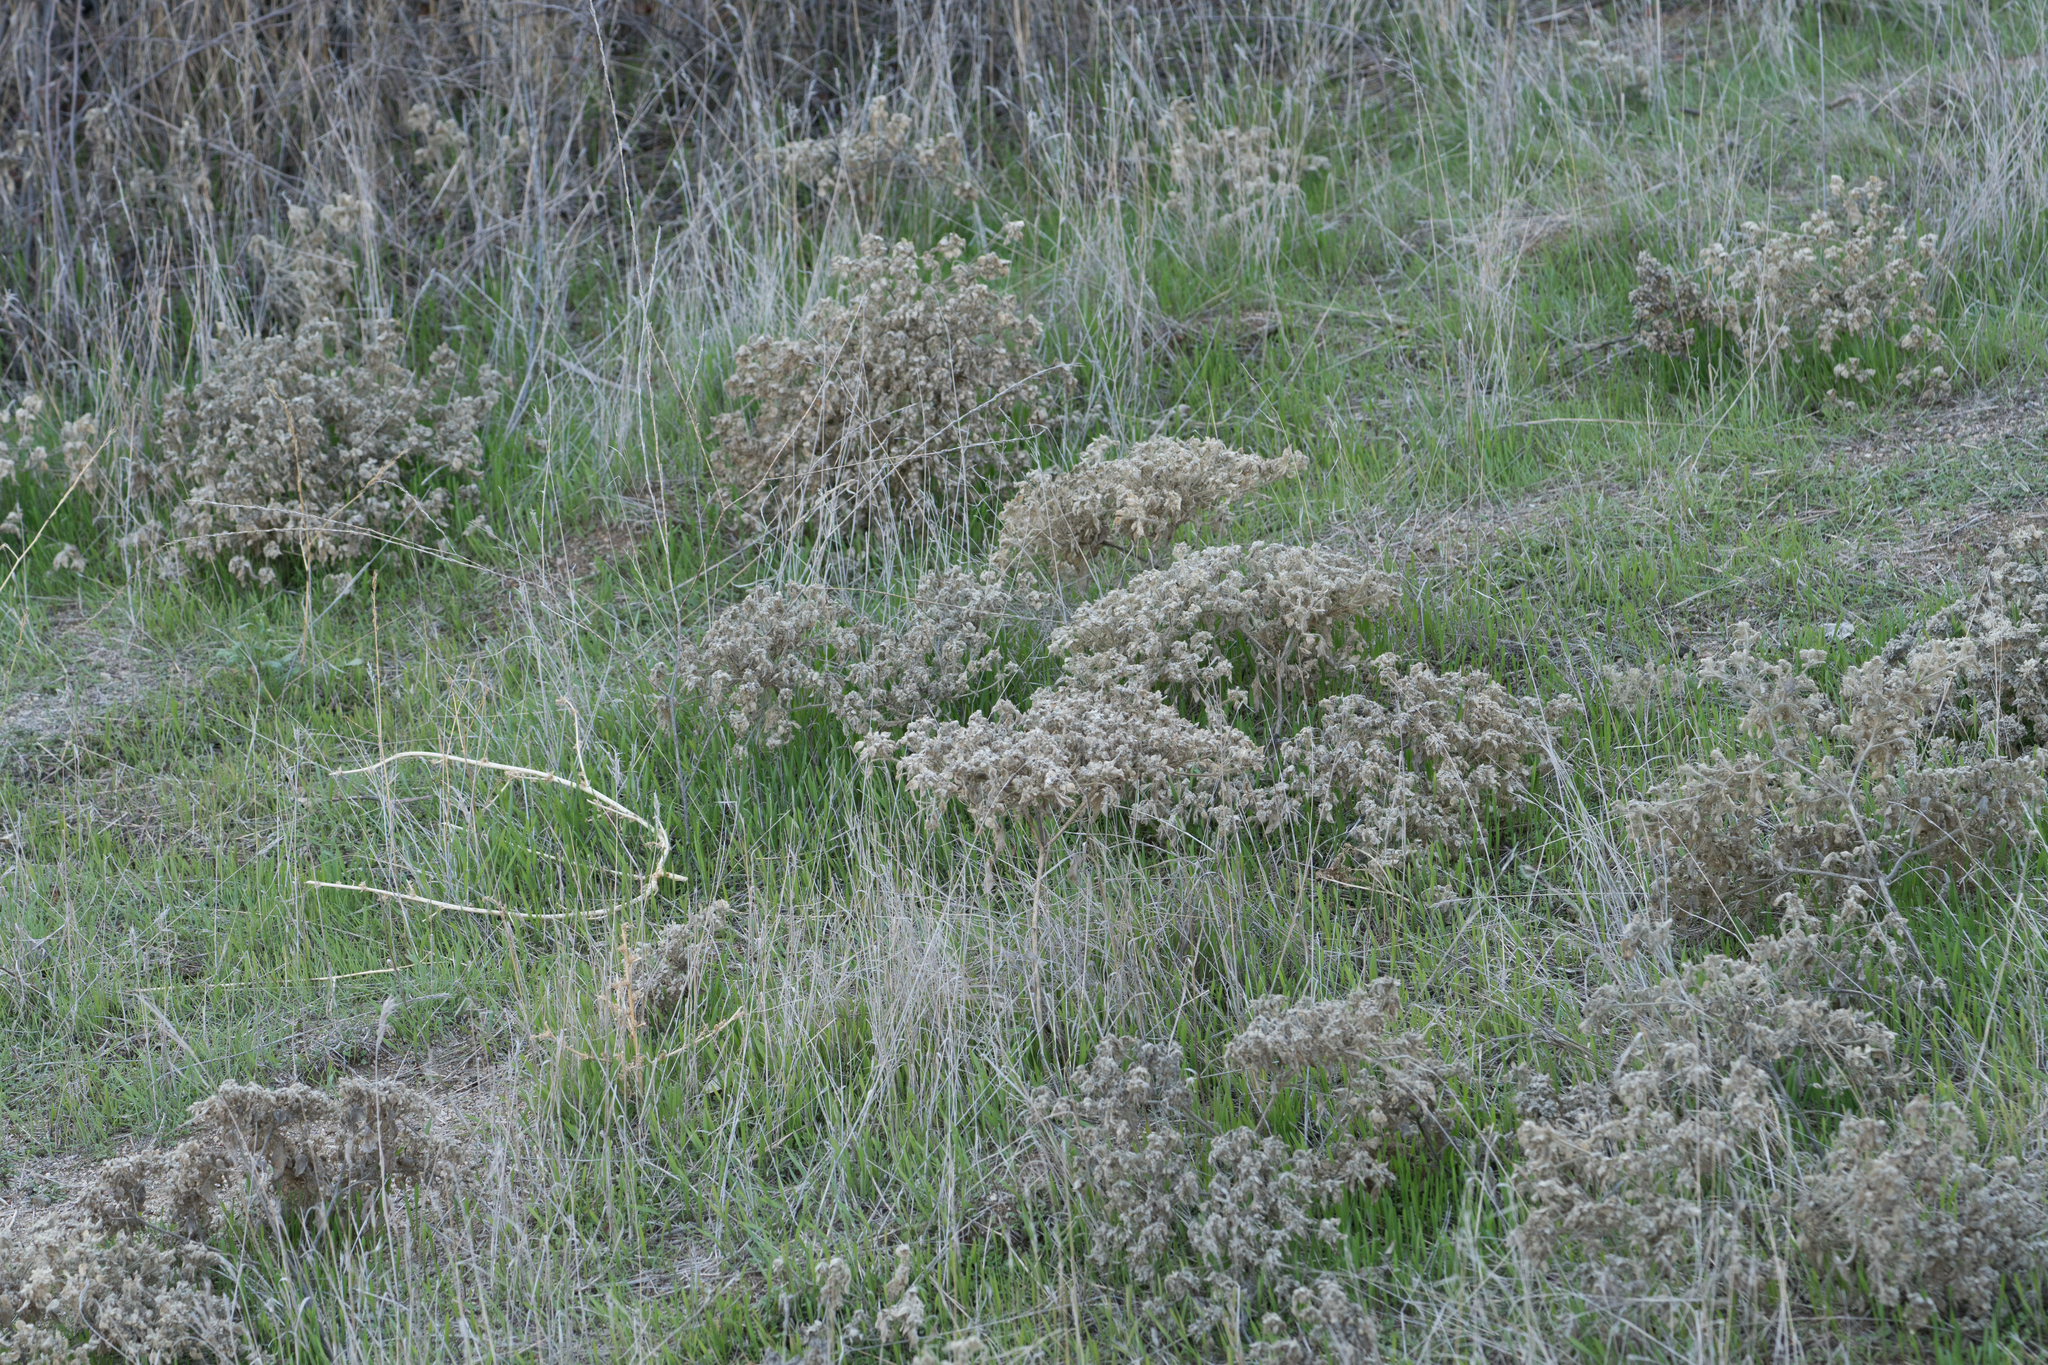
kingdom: Plantae
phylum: Tracheophyta
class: Magnoliopsida
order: Malpighiales
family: Euphorbiaceae
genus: Croton
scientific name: Croton setiger
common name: Dove weed
